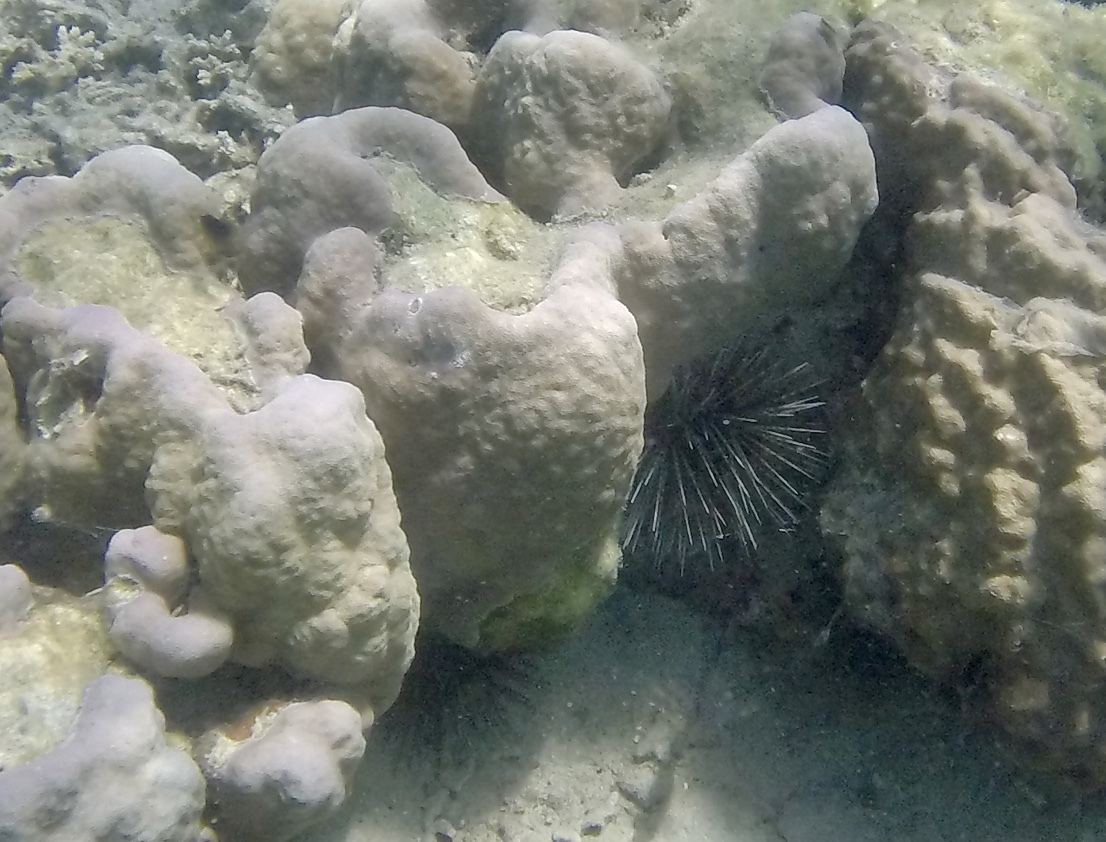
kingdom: Animalia
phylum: Echinodermata
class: Echinoidea
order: Diadematoida
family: Diadematidae
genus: Echinothrix
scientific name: Echinothrix calamaris
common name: Banded sea urchin
